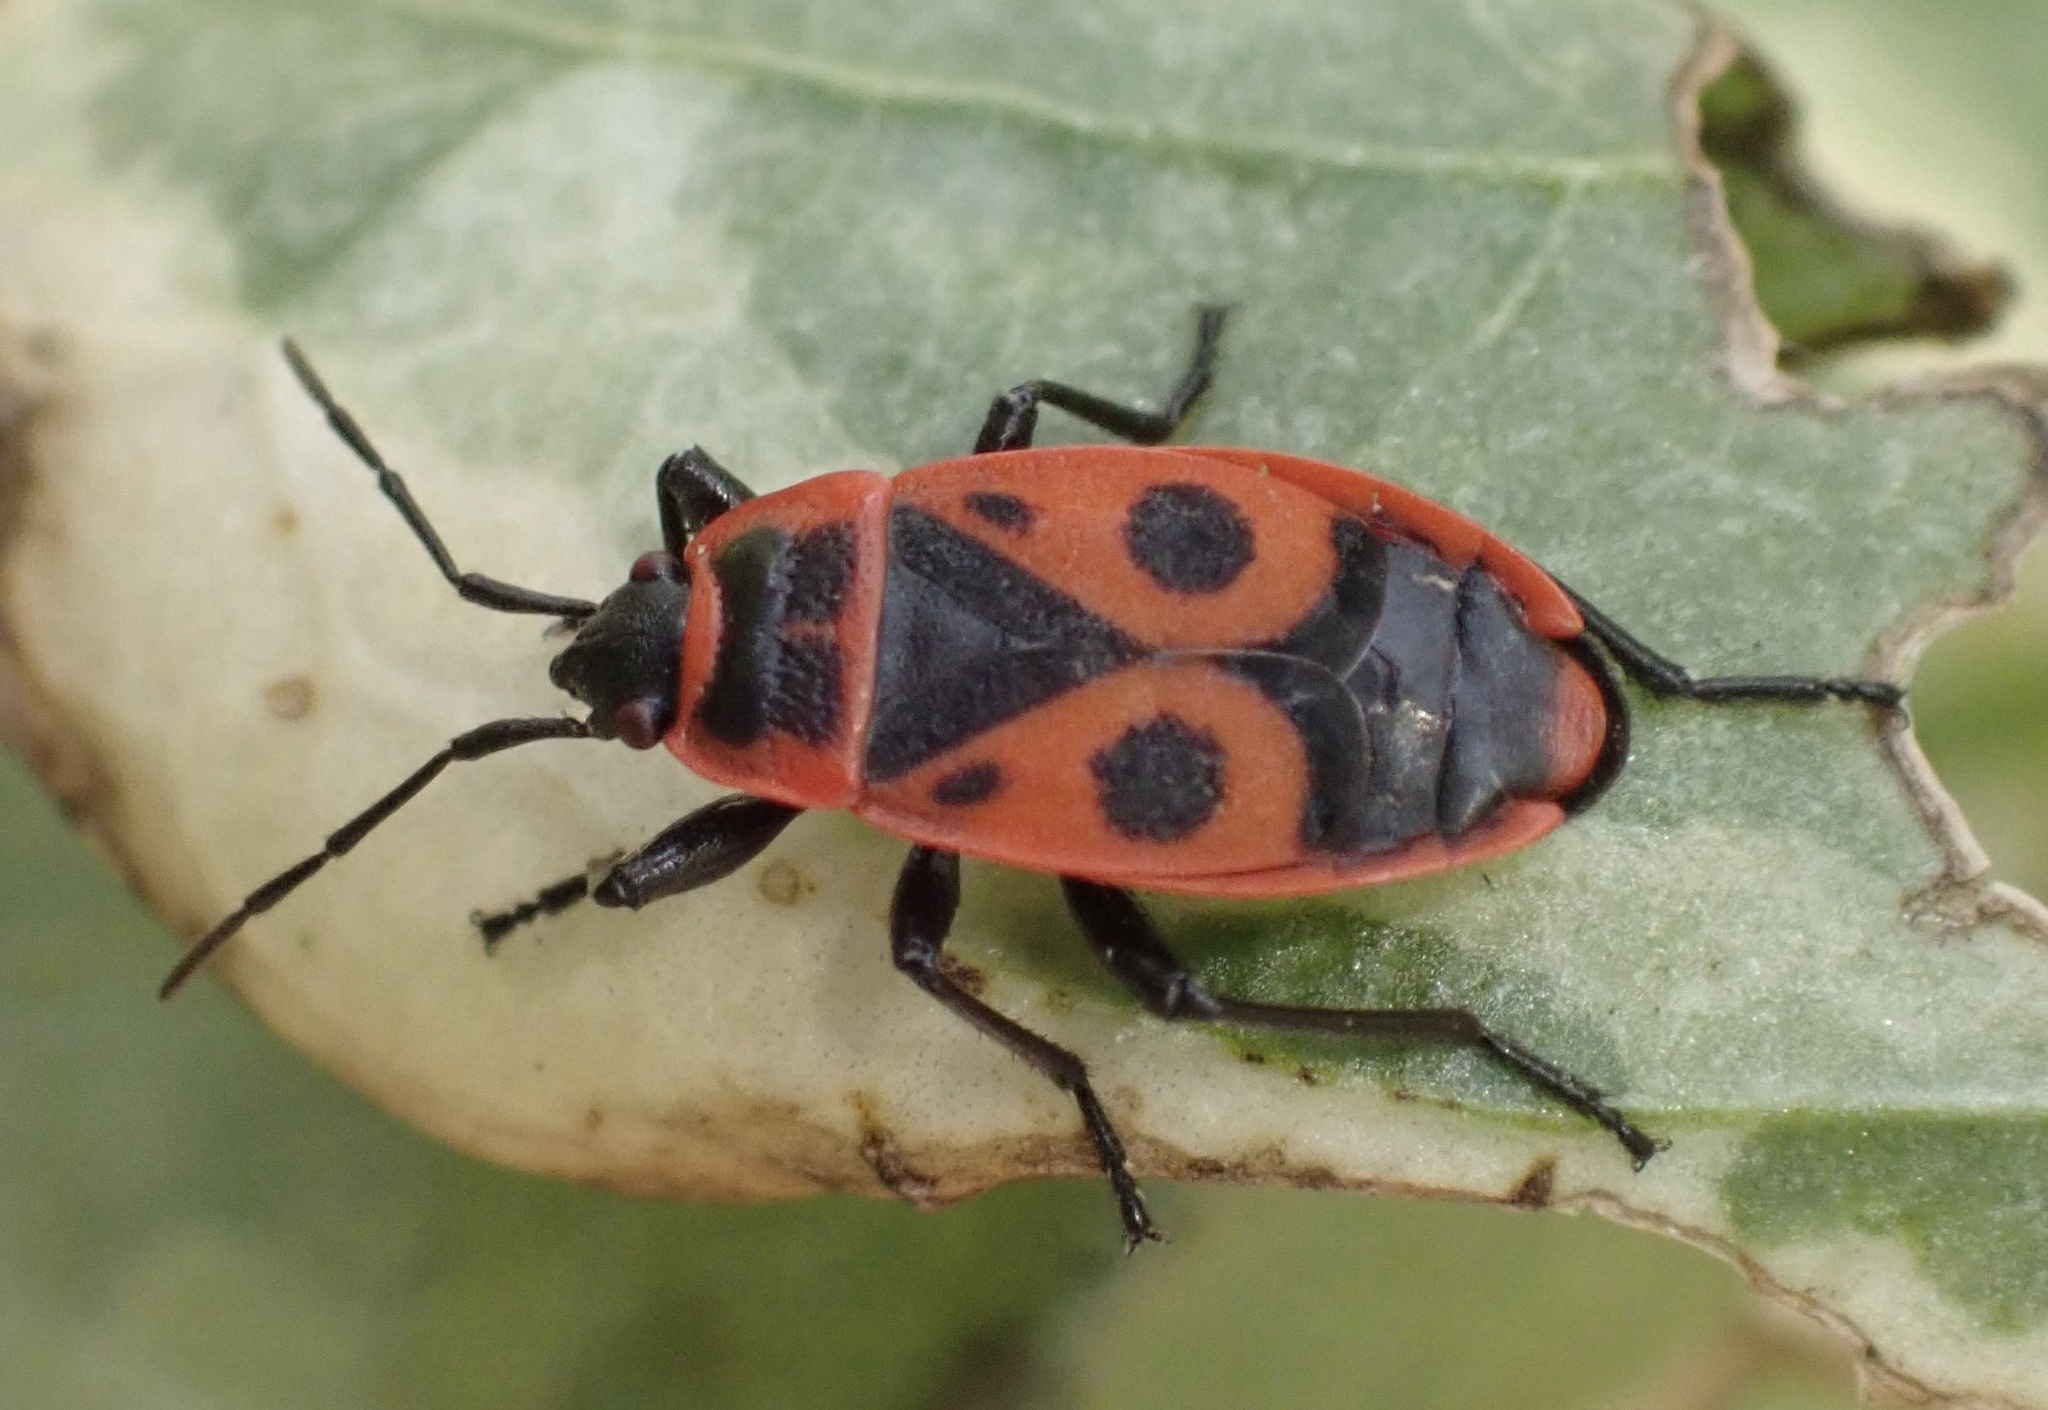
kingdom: Animalia
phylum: Arthropoda
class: Insecta
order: Hemiptera
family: Pyrrhocoridae
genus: Pyrrhocoris
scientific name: Pyrrhocoris apterus
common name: Firebug
